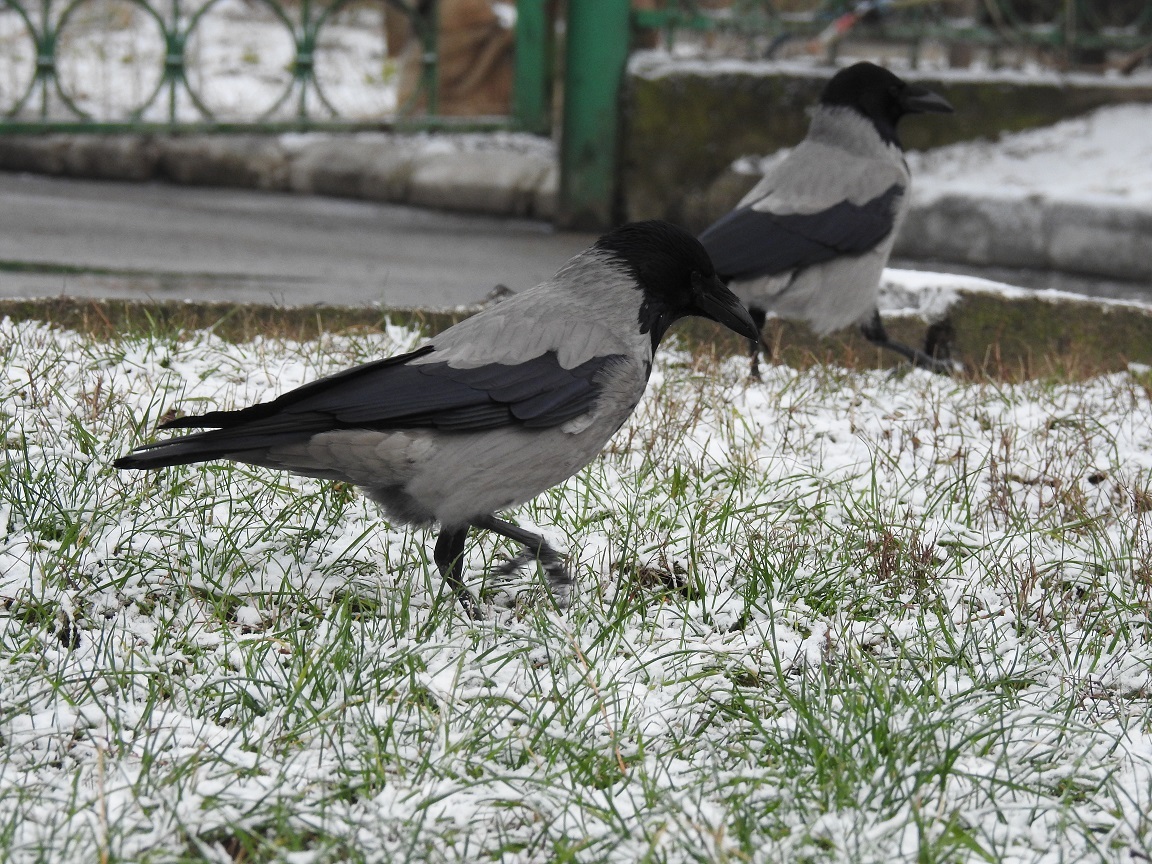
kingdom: Animalia
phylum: Chordata
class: Aves
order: Passeriformes
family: Corvidae
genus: Corvus
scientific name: Corvus cornix
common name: Hooded crow
